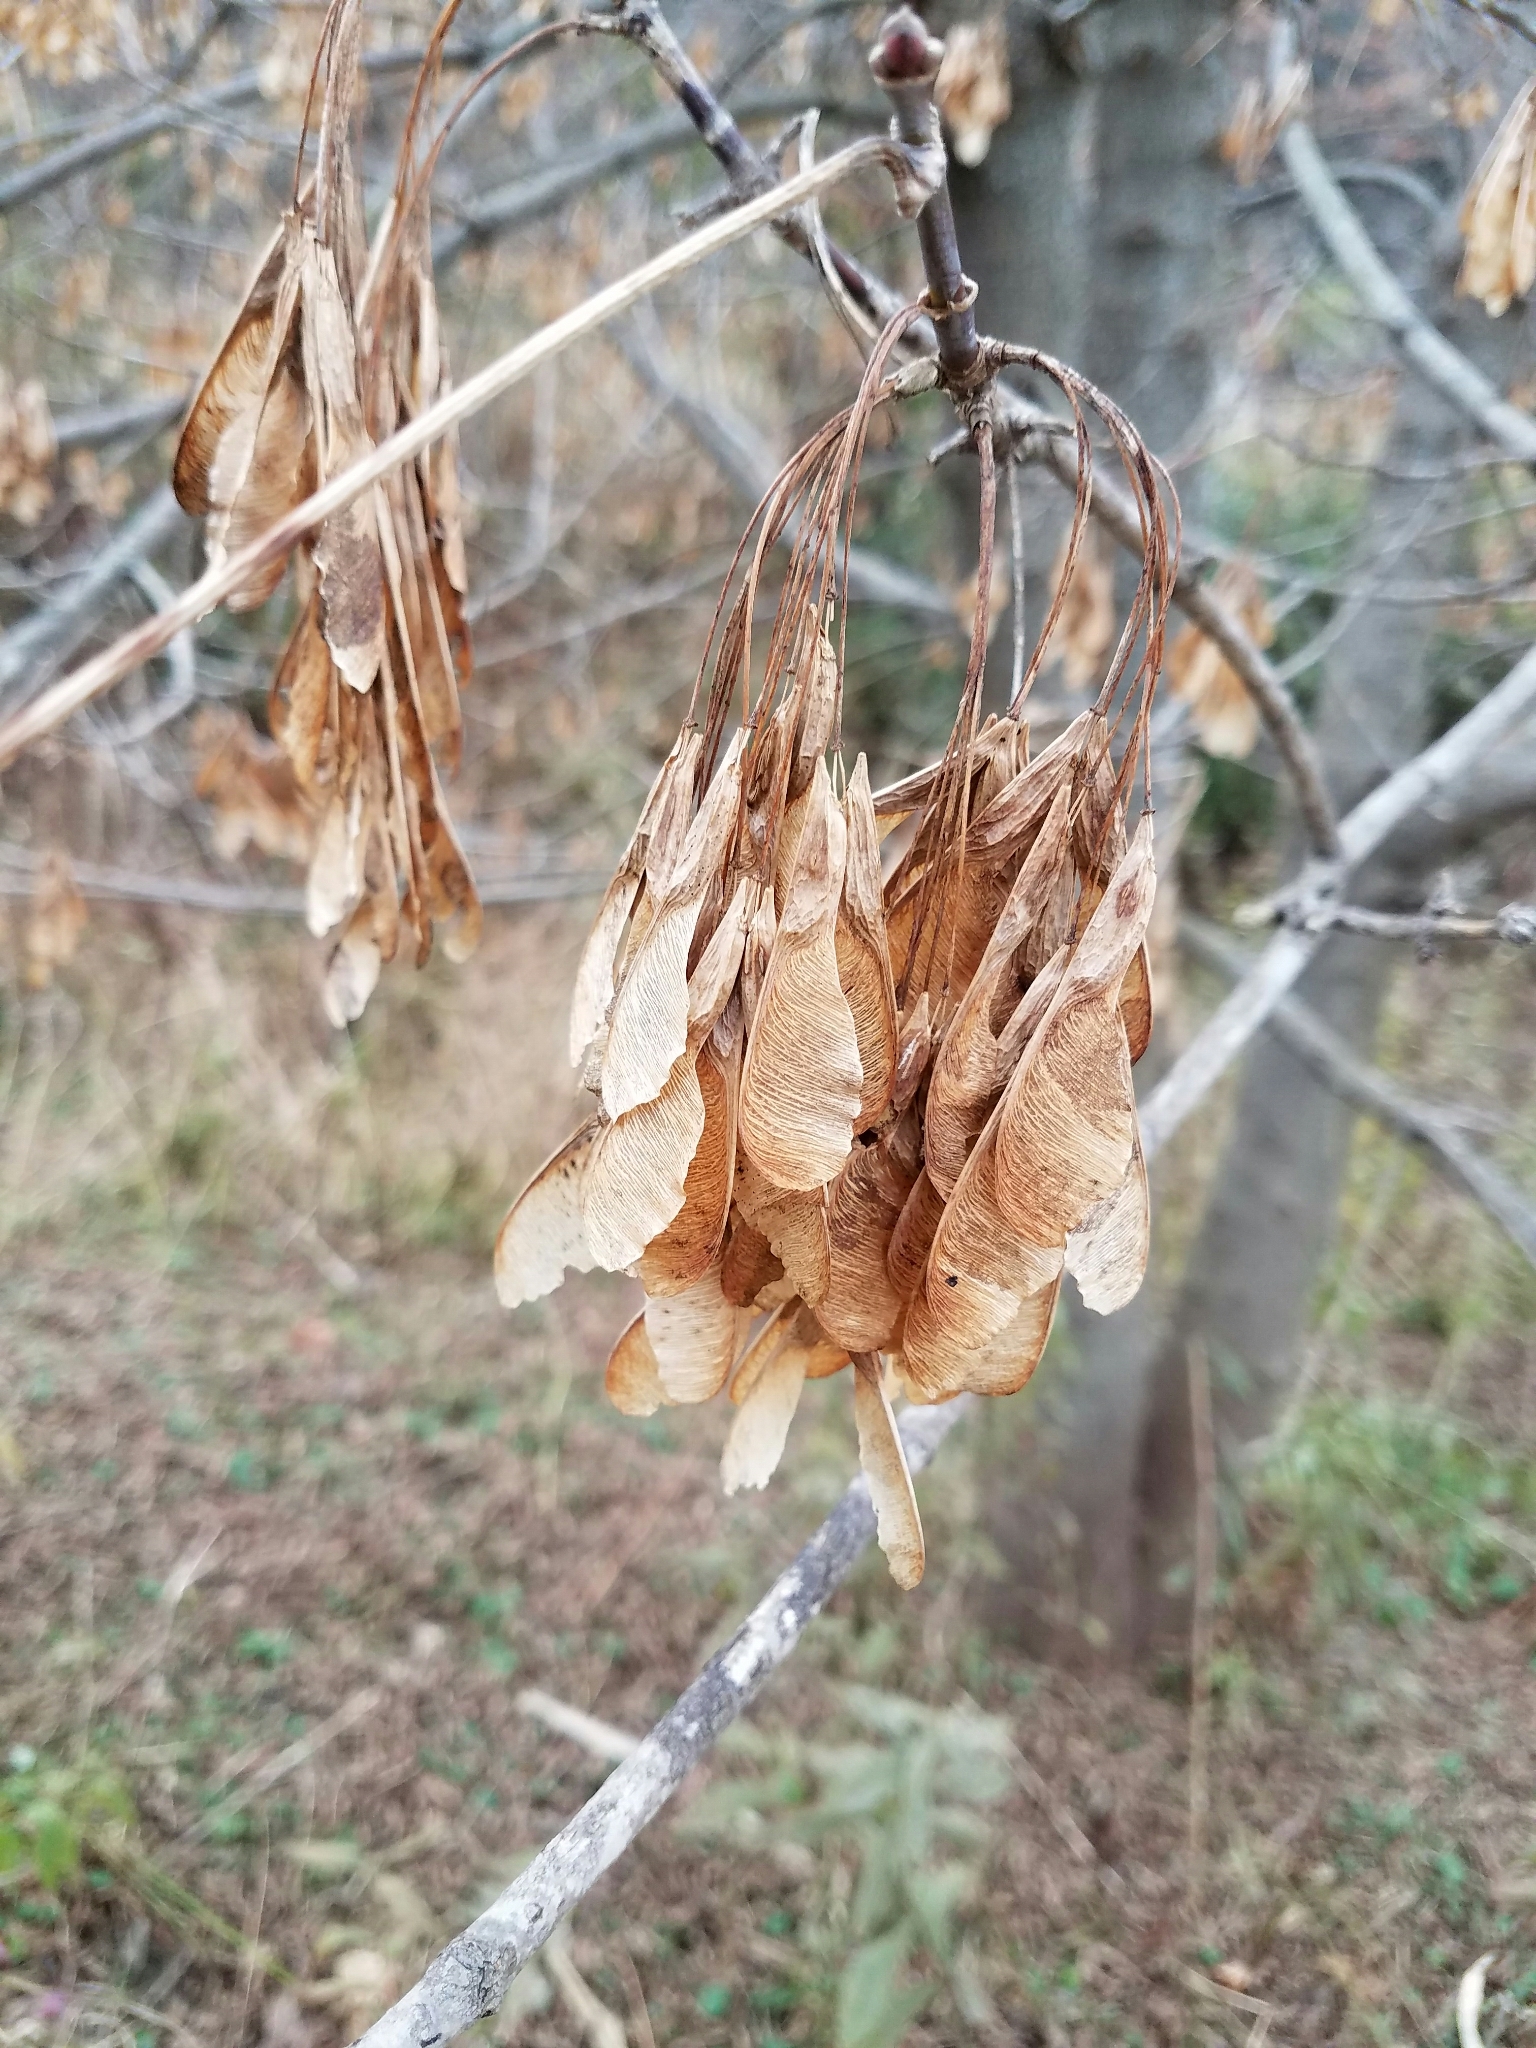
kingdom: Plantae
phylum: Tracheophyta
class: Magnoliopsida
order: Sapindales
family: Sapindaceae
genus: Acer
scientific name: Acer negundo
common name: Ashleaf maple
